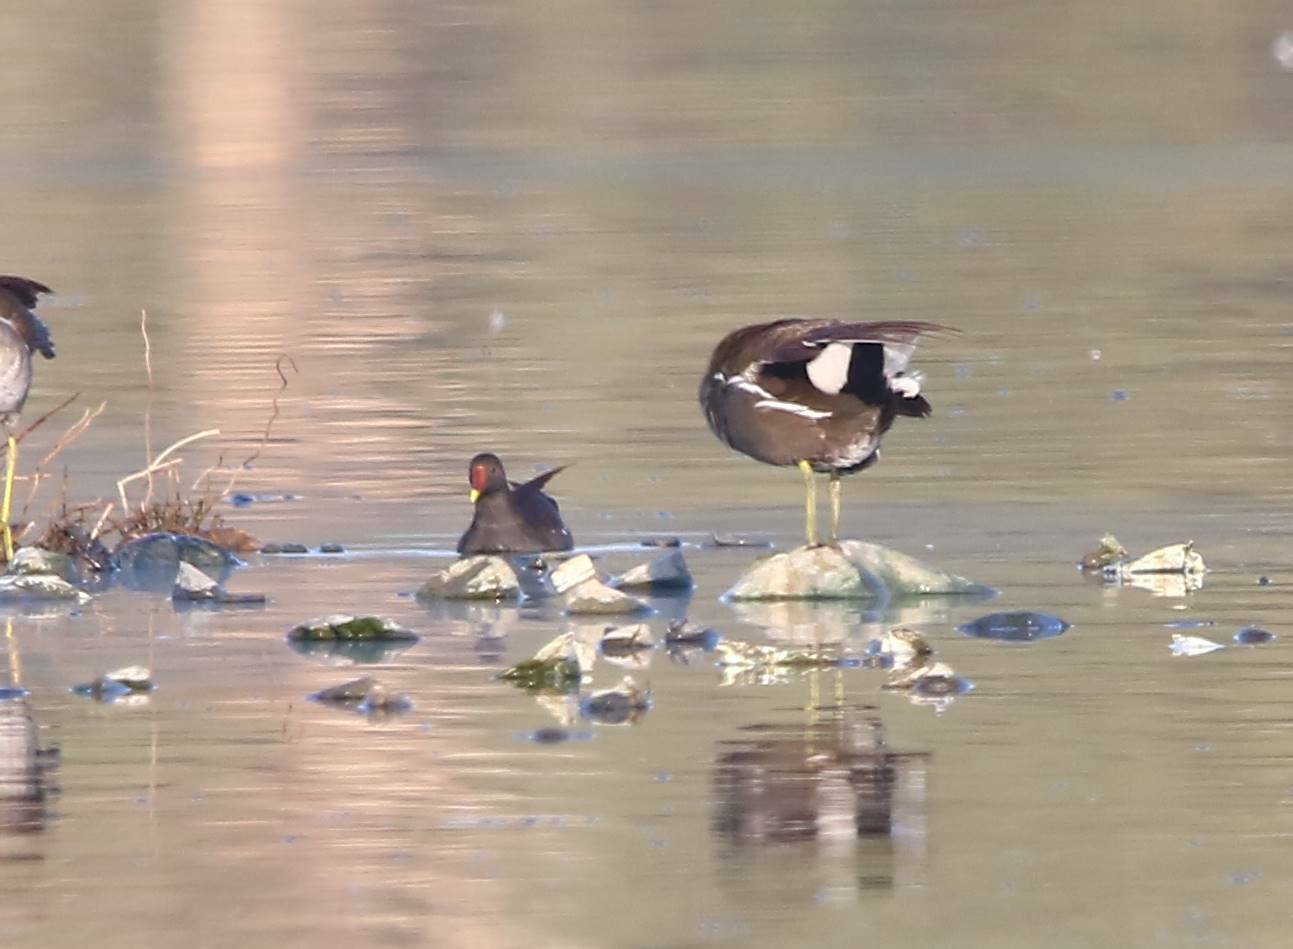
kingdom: Animalia
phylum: Chordata
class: Aves
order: Gruiformes
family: Rallidae
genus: Gallinula
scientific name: Gallinula chloropus
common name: Common moorhen
